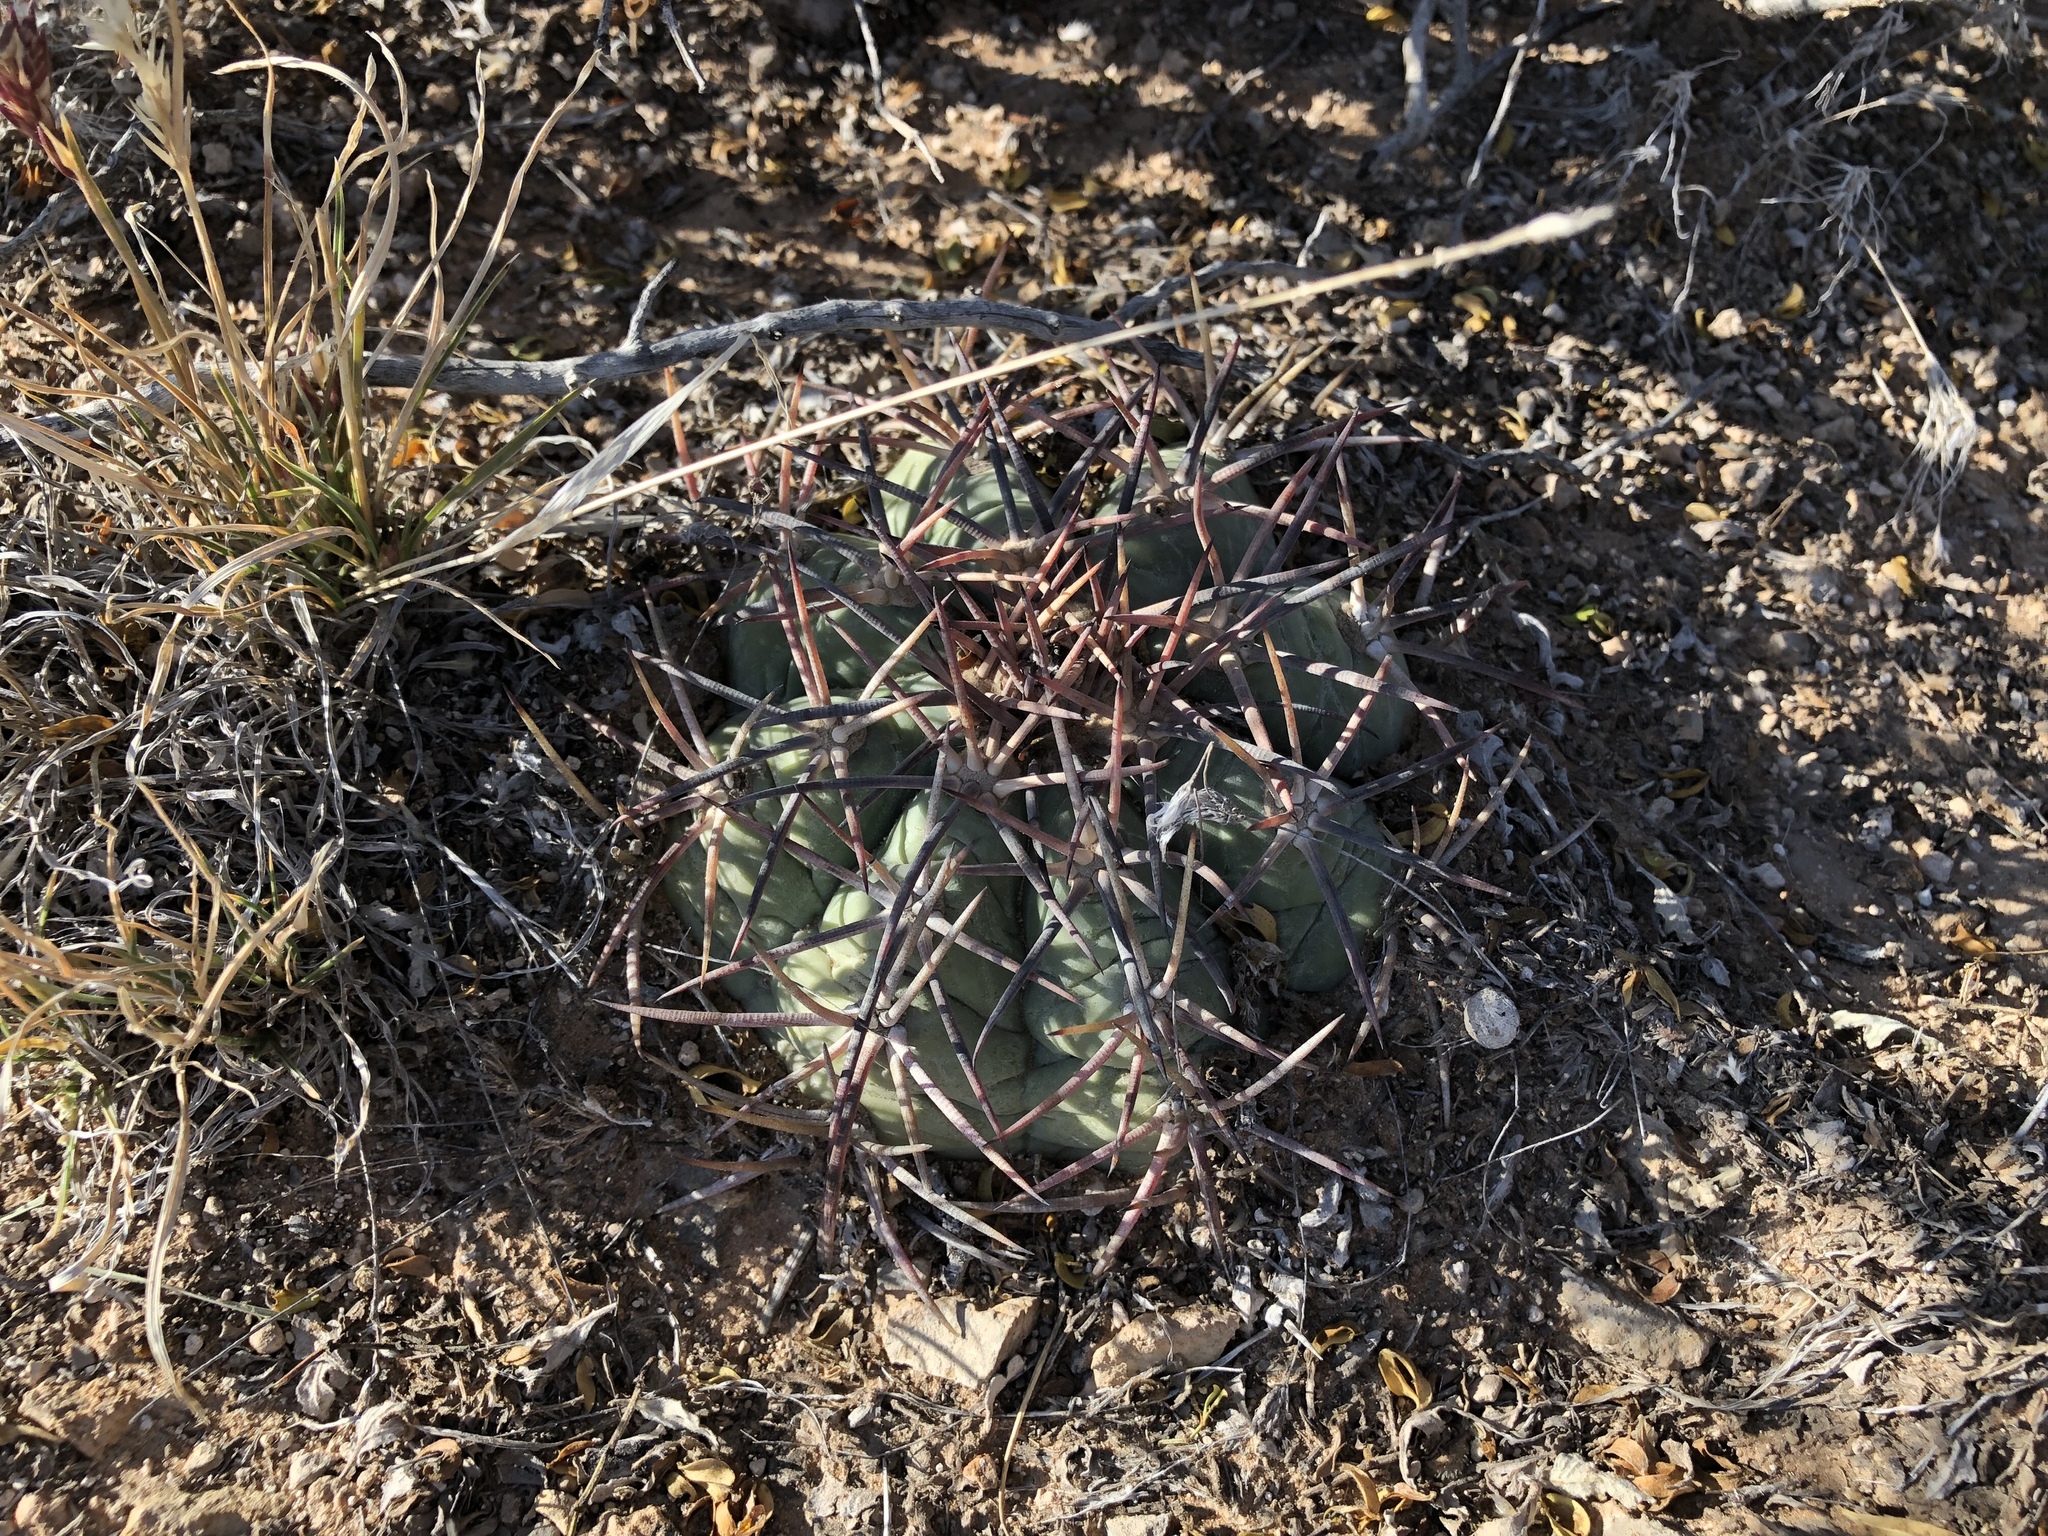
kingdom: Plantae
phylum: Tracheophyta
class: Magnoliopsida
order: Caryophyllales
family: Cactaceae
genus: Echinocactus
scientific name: Echinocactus horizonthalonius
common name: Devilshead
